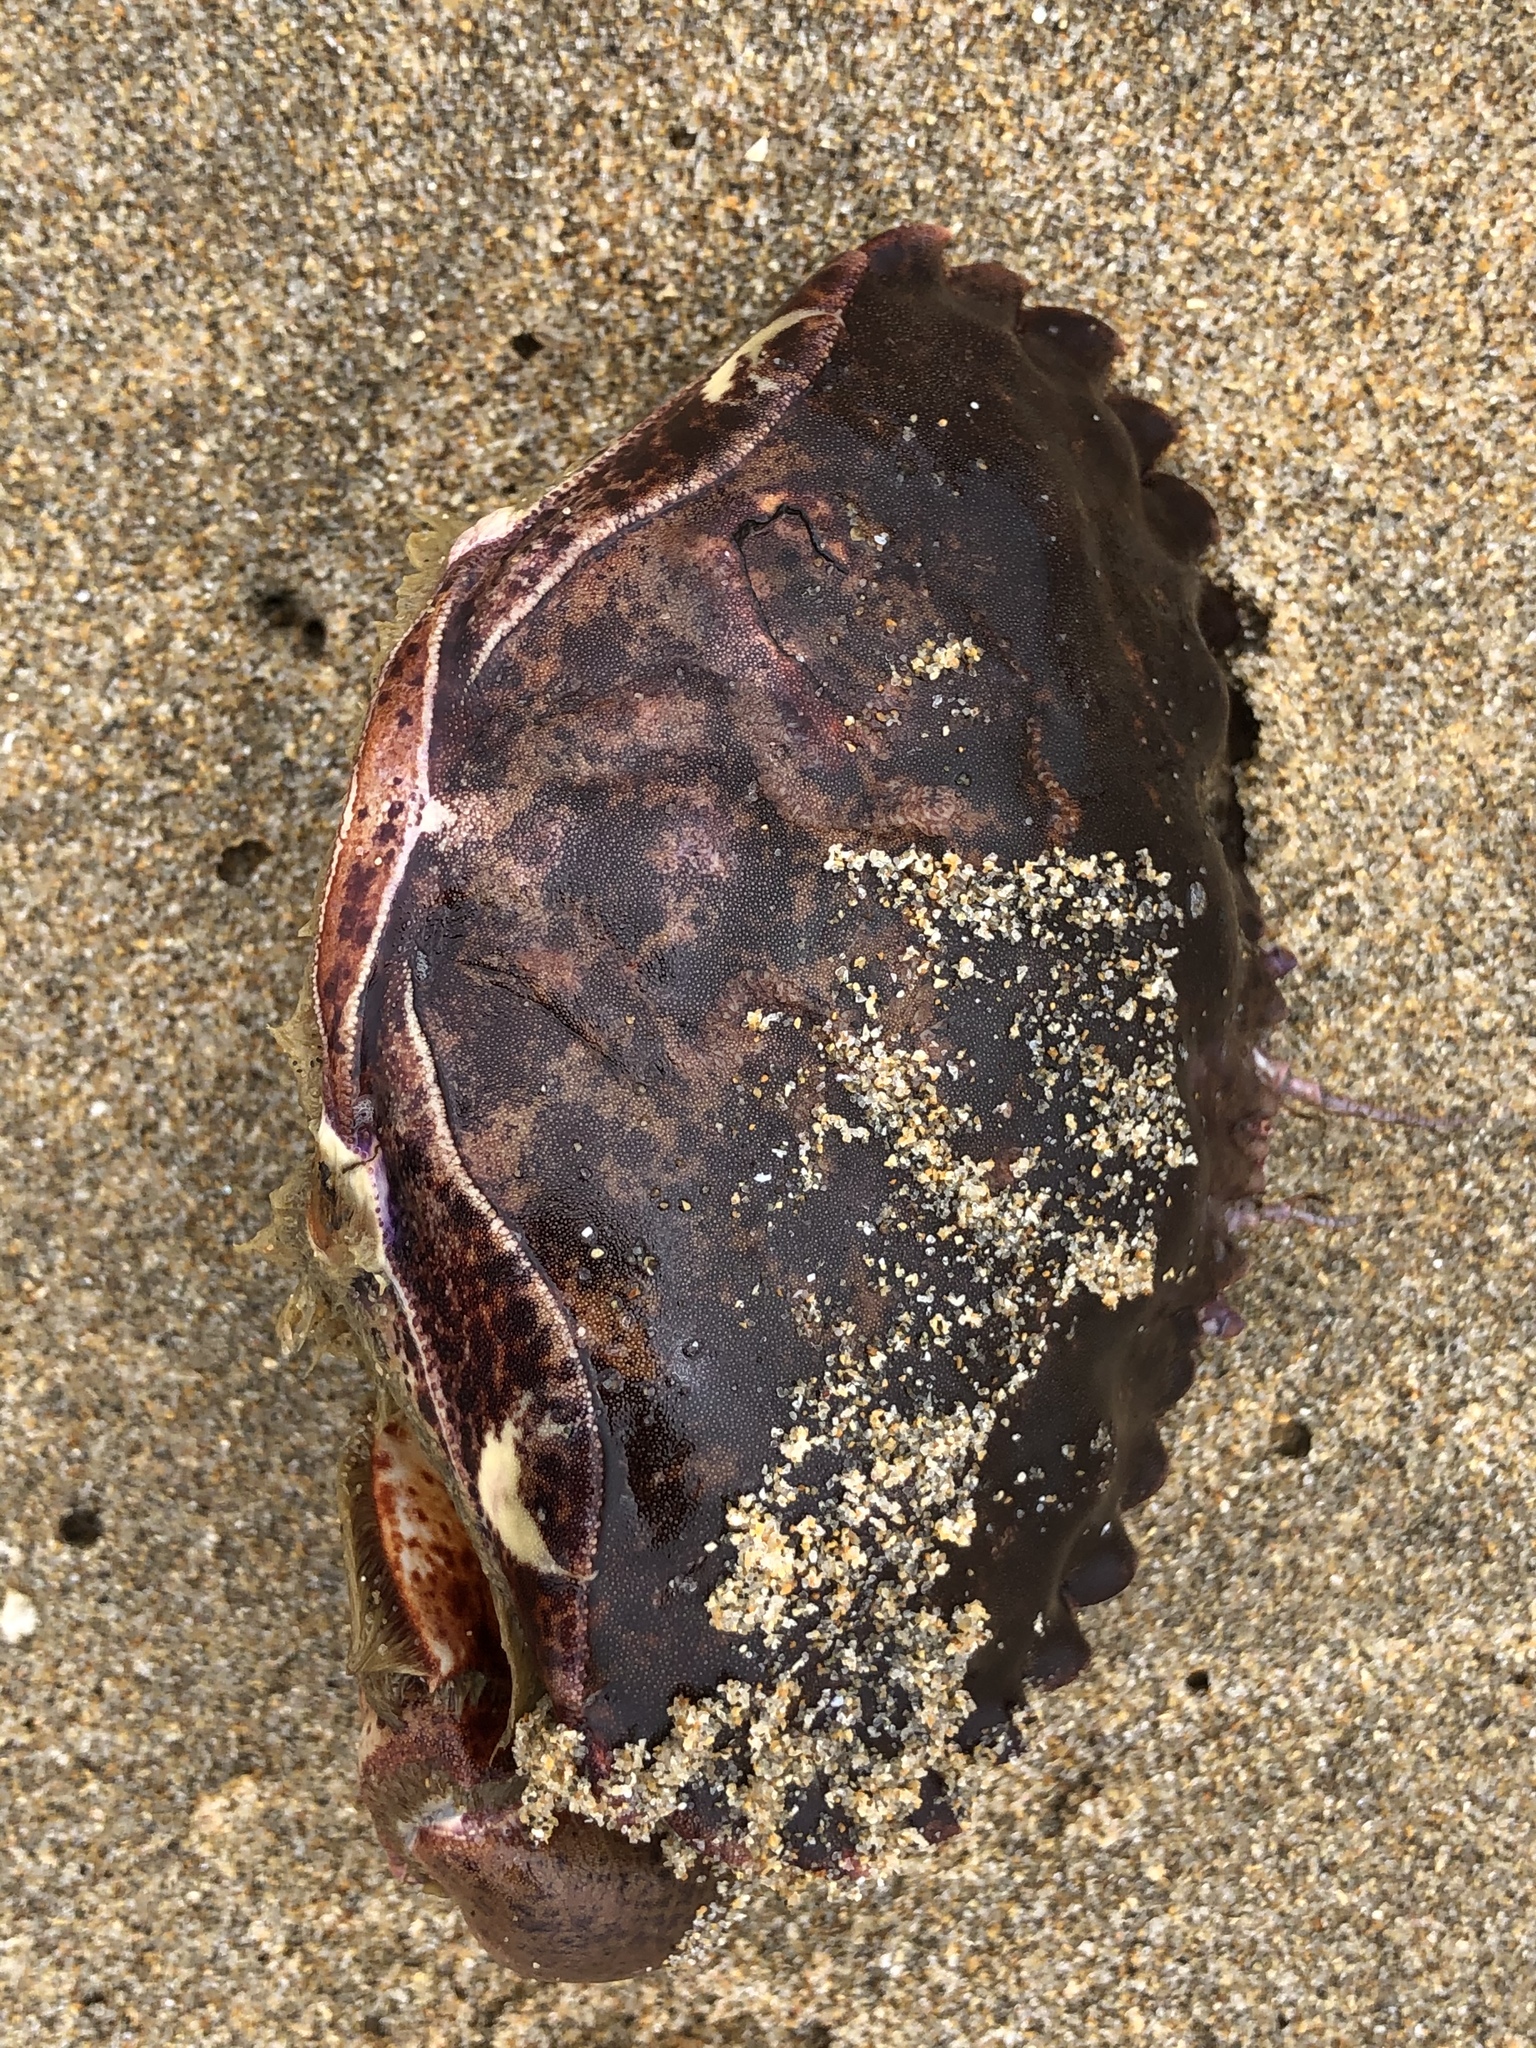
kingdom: Animalia
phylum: Arthropoda
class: Malacostraca
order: Decapoda
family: Cancridae
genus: Romaleon
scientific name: Romaleon antennarium
